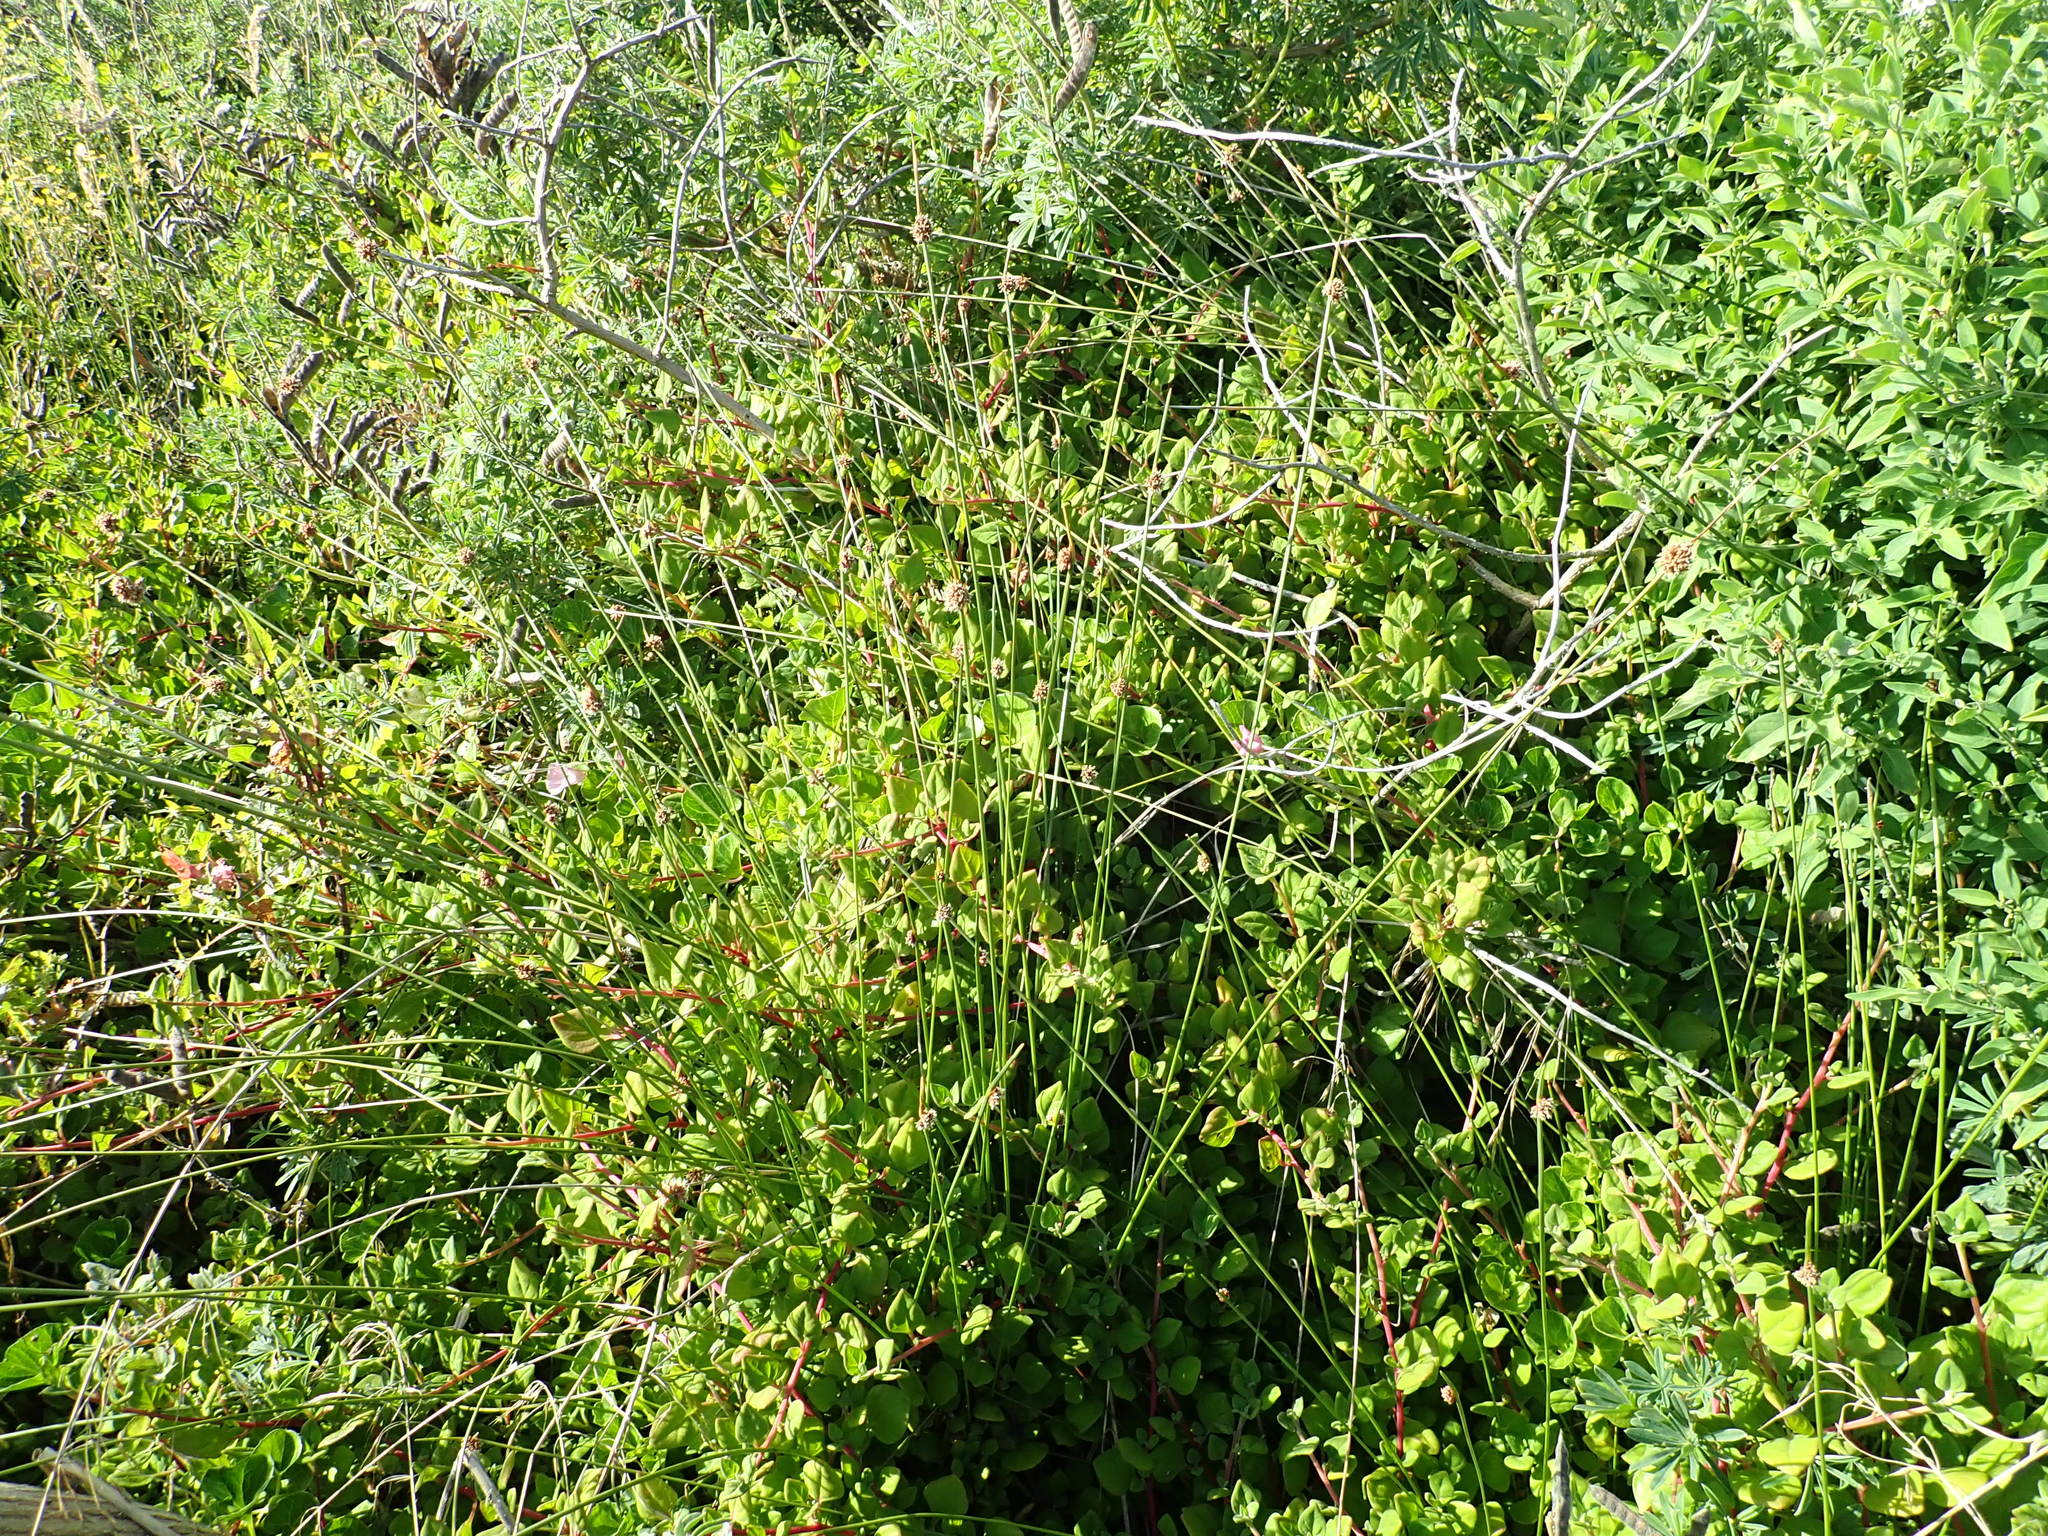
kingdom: Plantae
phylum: Tracheophyta
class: Magnoliopsida
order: Solanales
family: Convolvulaceae
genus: Calystegia
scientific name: Calystegia soldanella
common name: Sea bindweed
